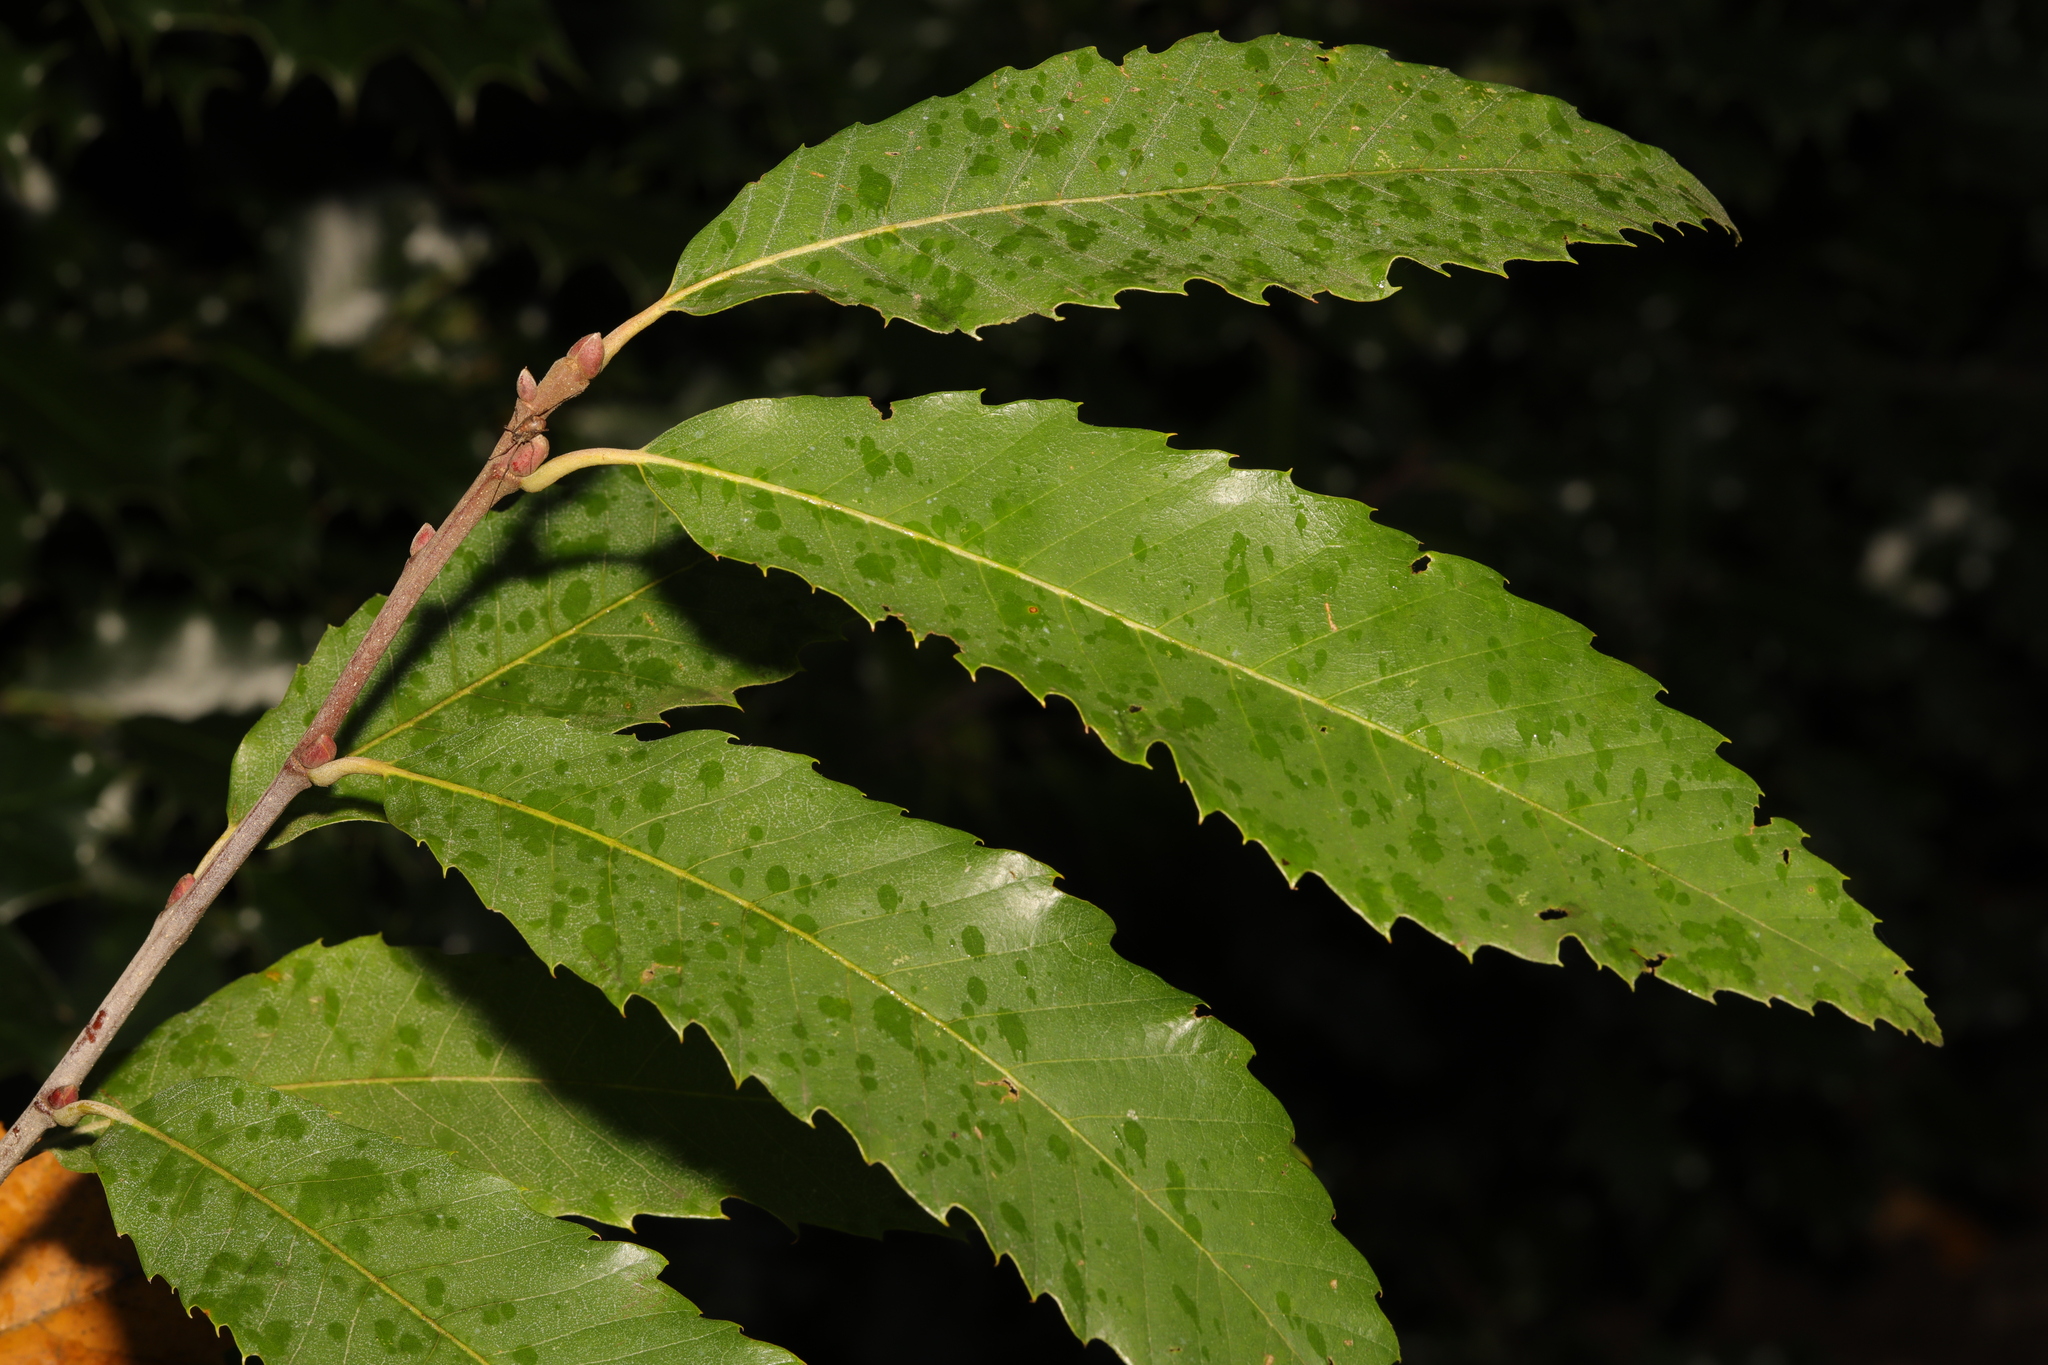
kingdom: Plantae
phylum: Tracheophyta
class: Magnoliopsida
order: Fagales
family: Fagaceae
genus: Castanea
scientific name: Castanea sativa
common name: Sweet chestnut
